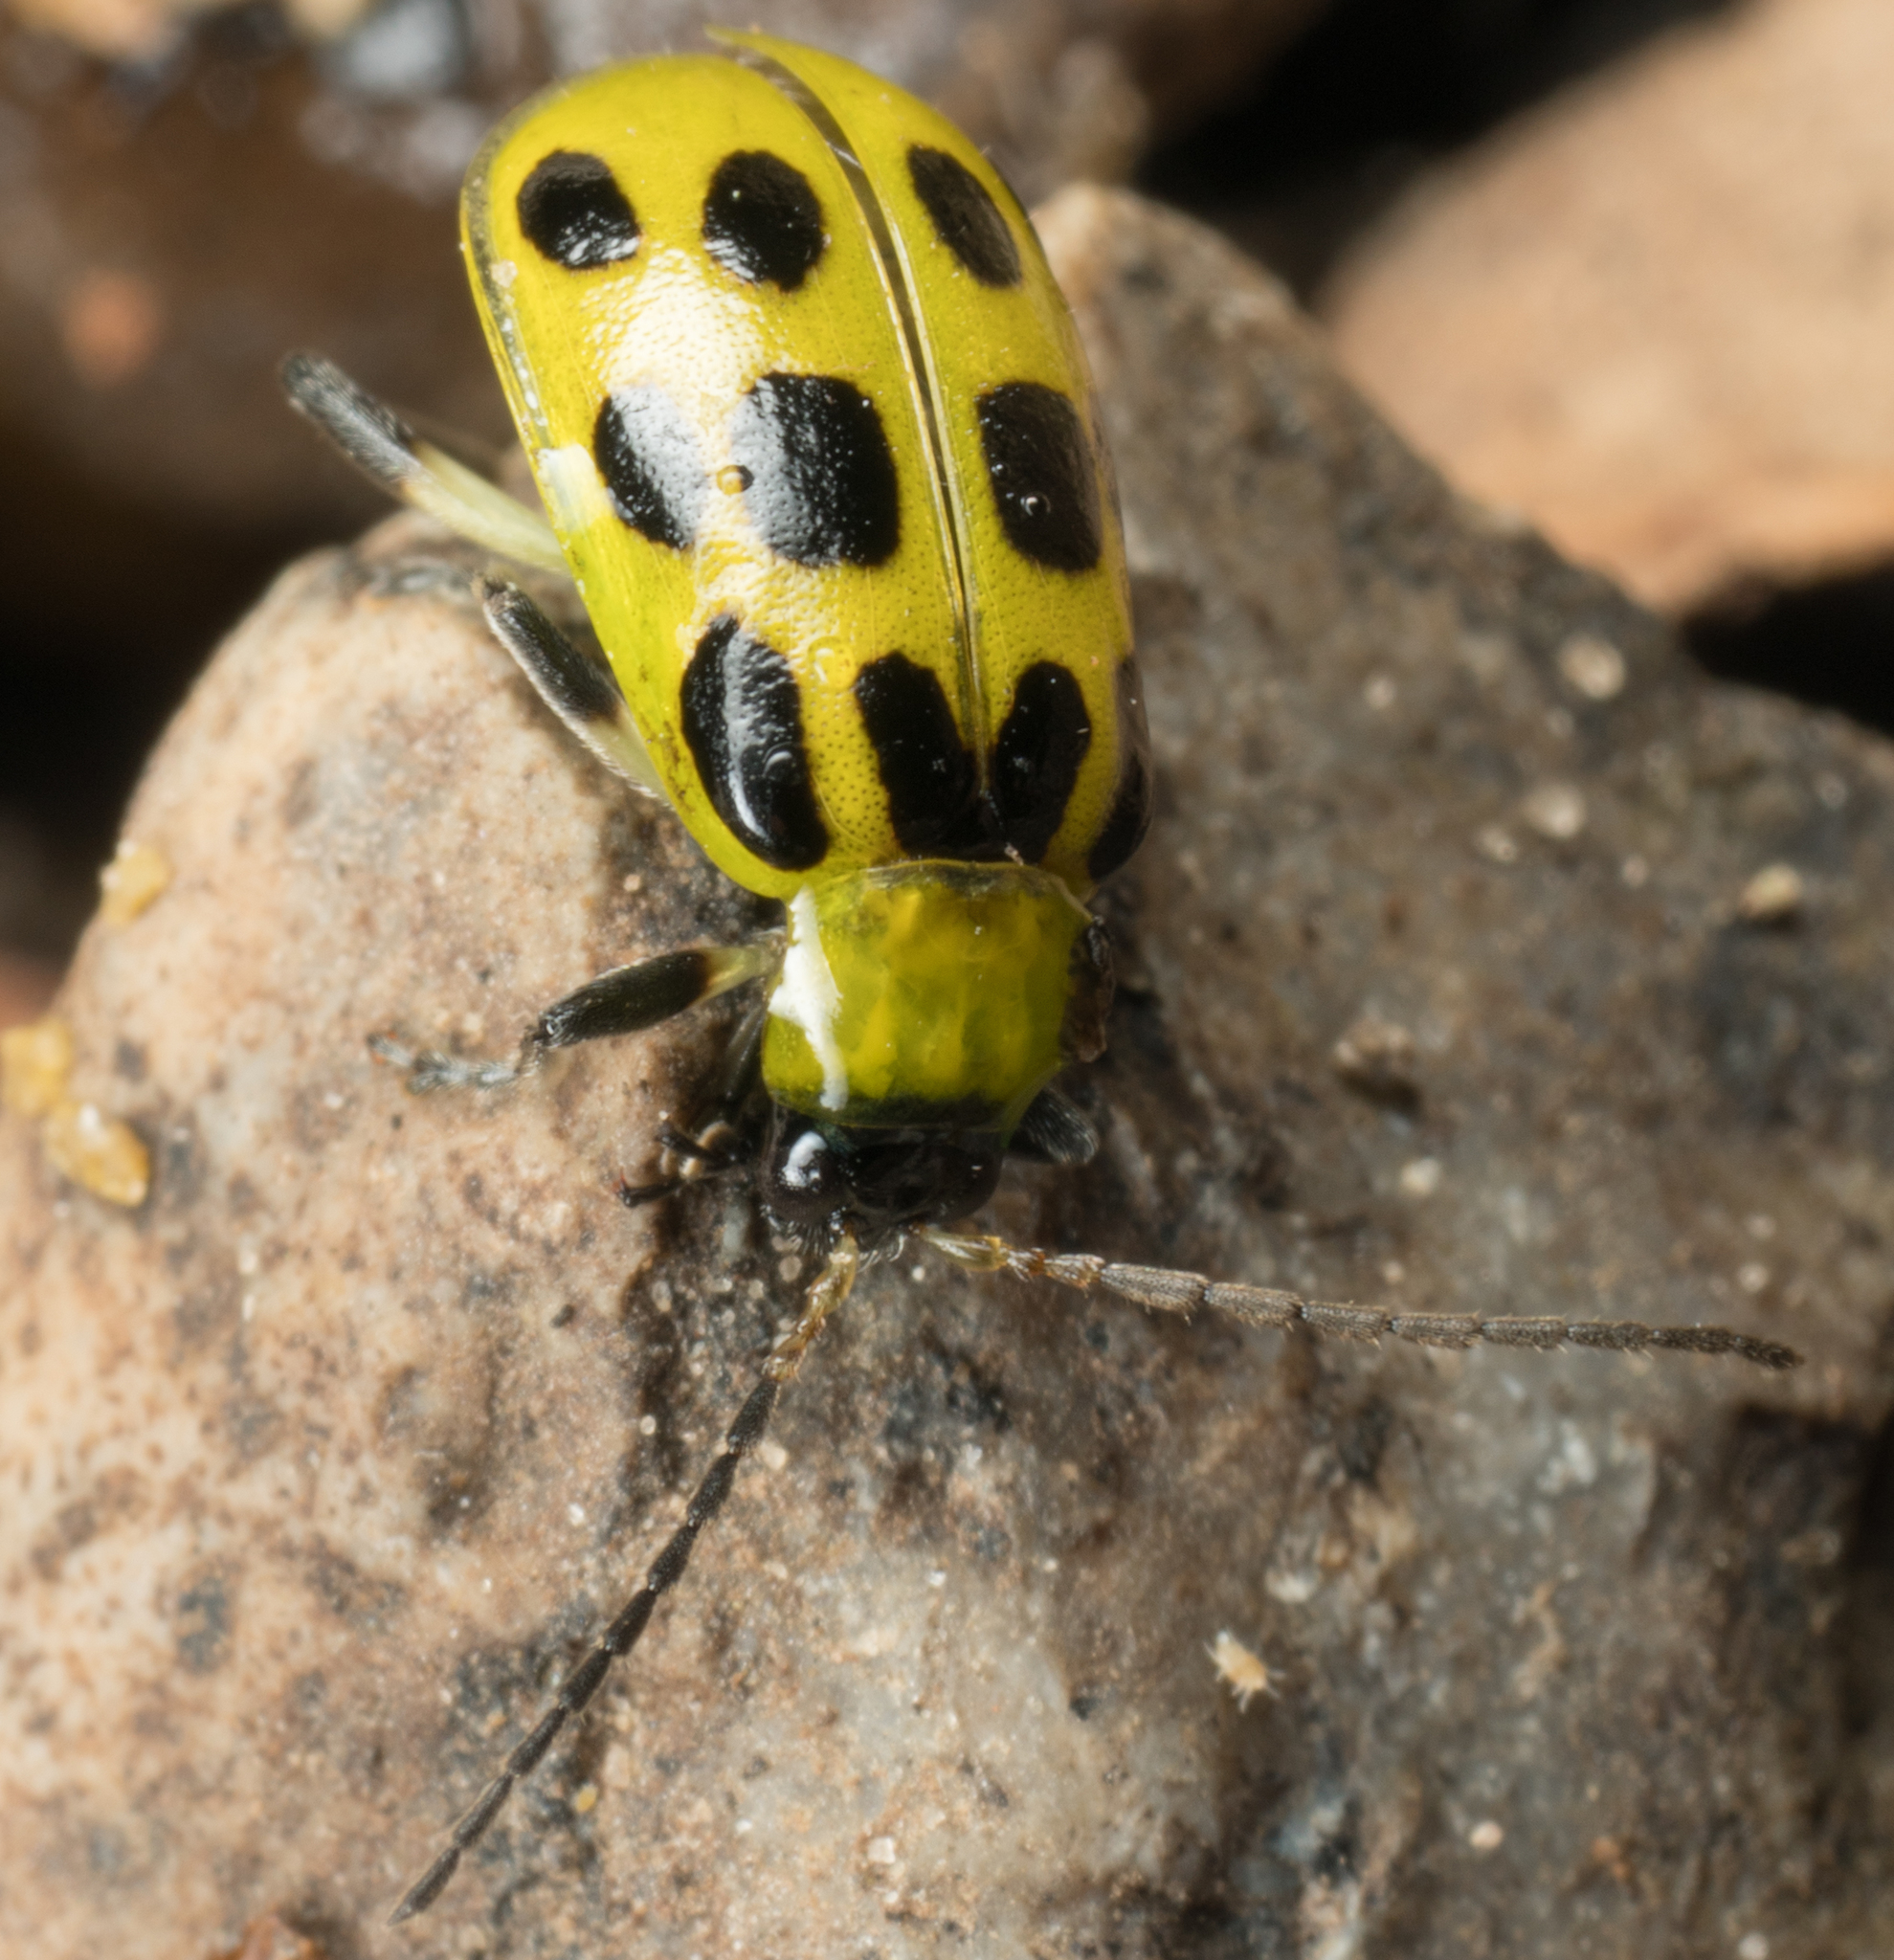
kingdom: Animalia
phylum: Arthropoda
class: Insecta
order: Coleoptera
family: Chrysomelidae
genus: Diabrotica
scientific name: Diabrotica undecimpunctata
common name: Spotted cucumber beetle
